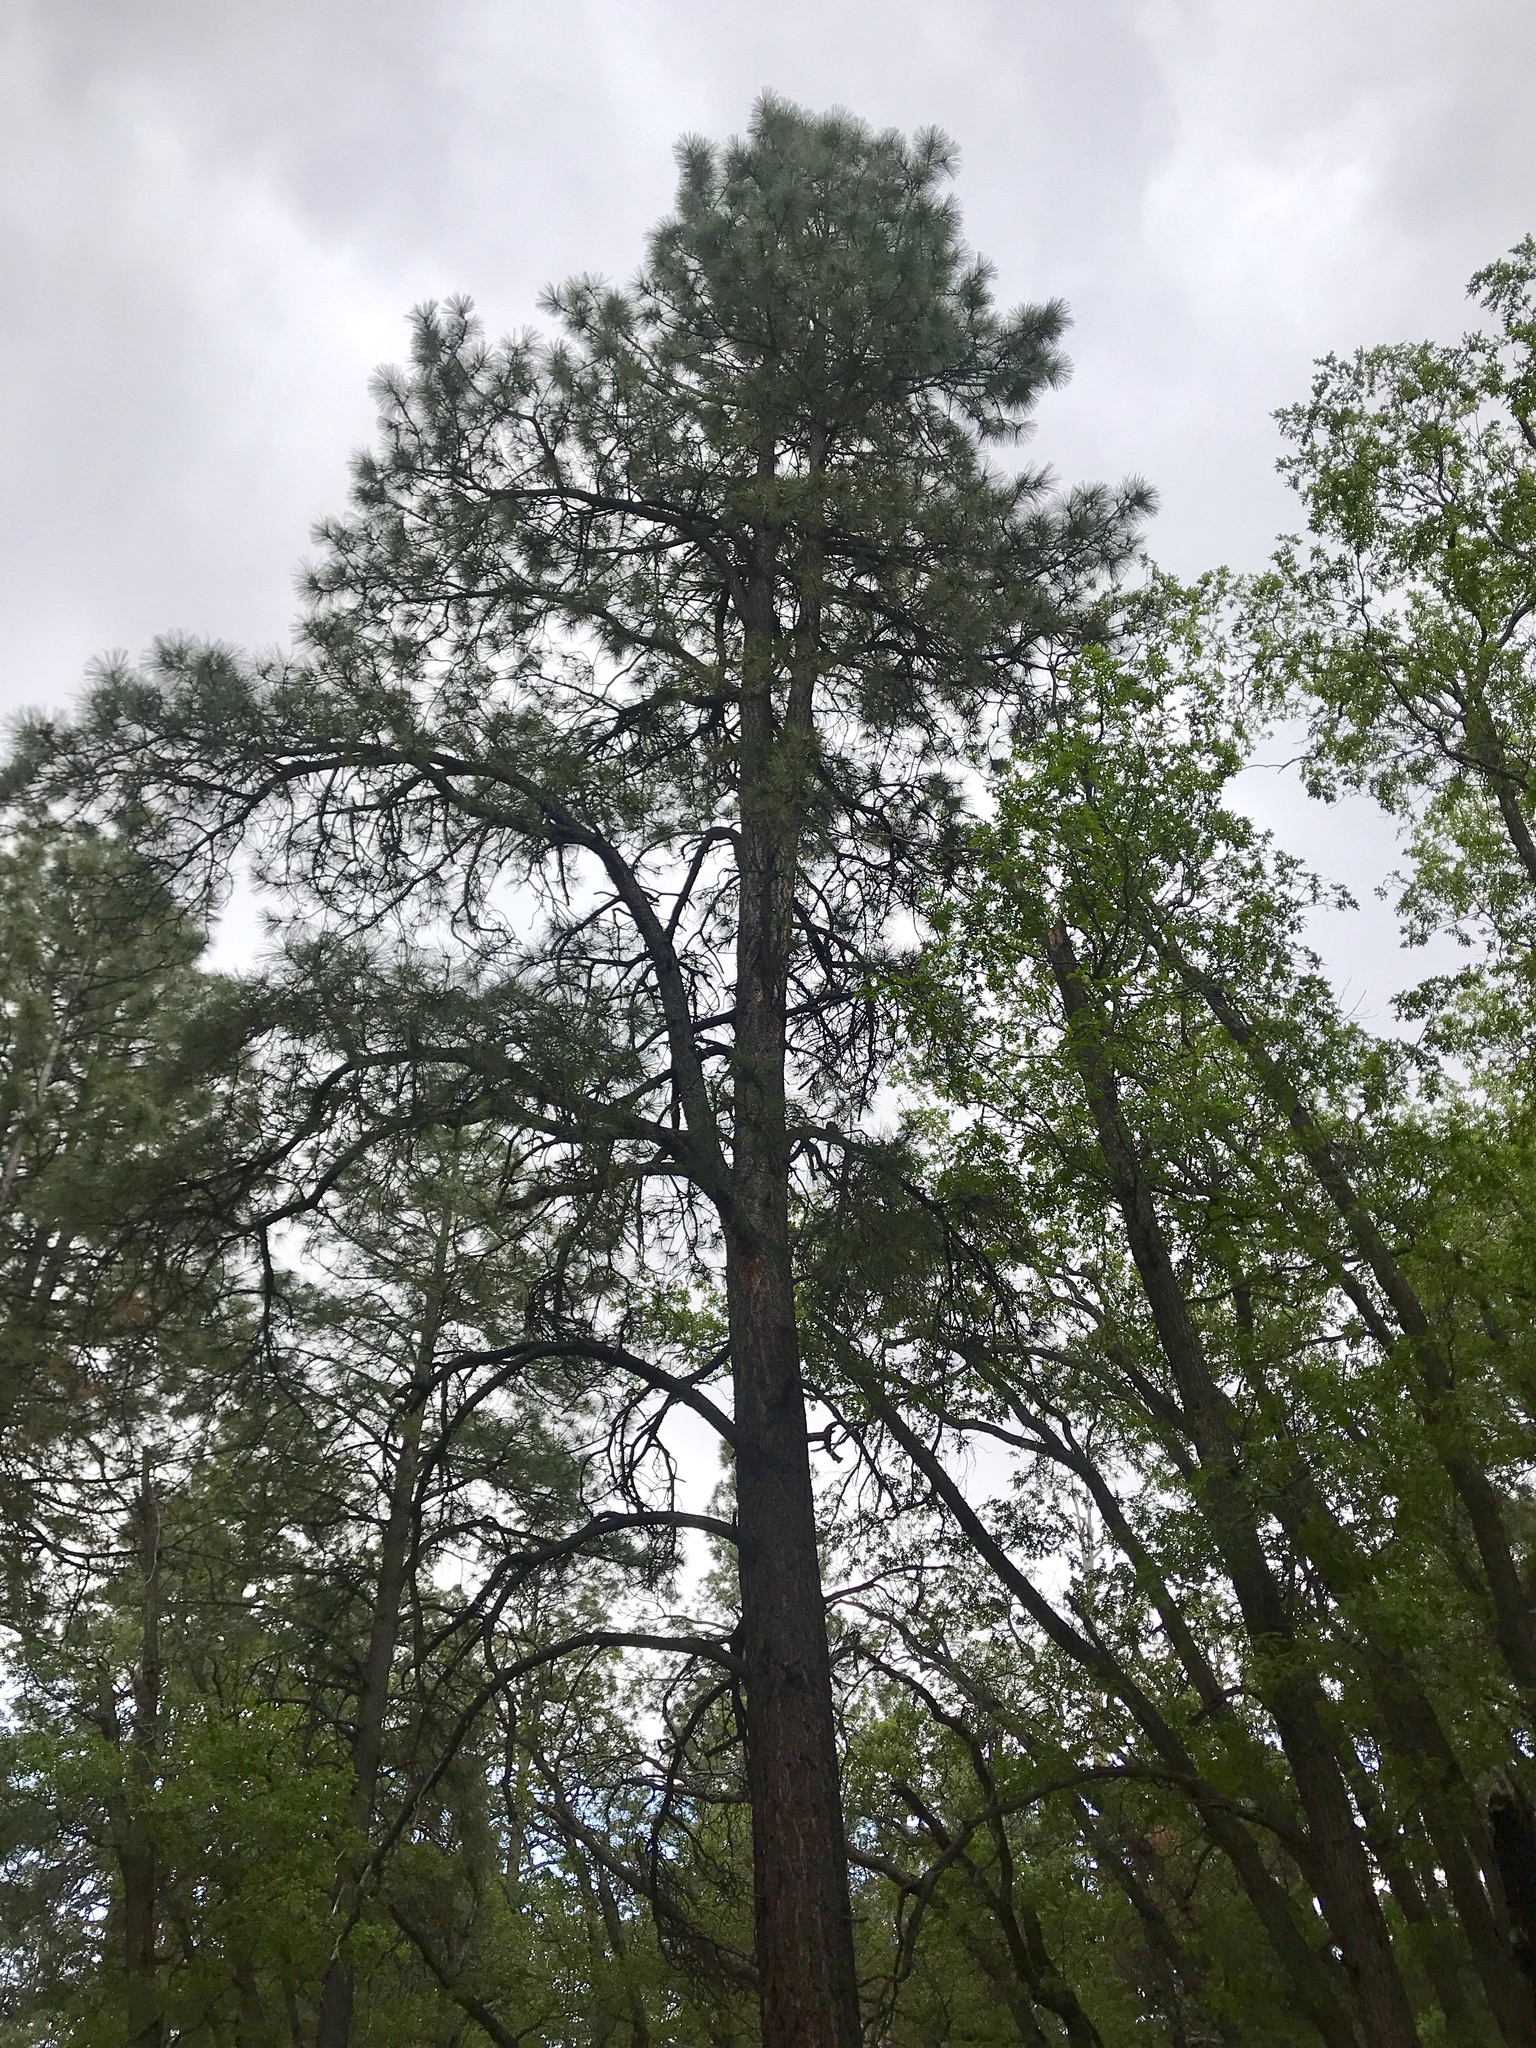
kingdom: Plantae
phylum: Tracheophyta
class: Pinopsida
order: Pinales
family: Pinaceae
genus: Pinus
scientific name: Pinus ponderosa
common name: Western yellow-pine
